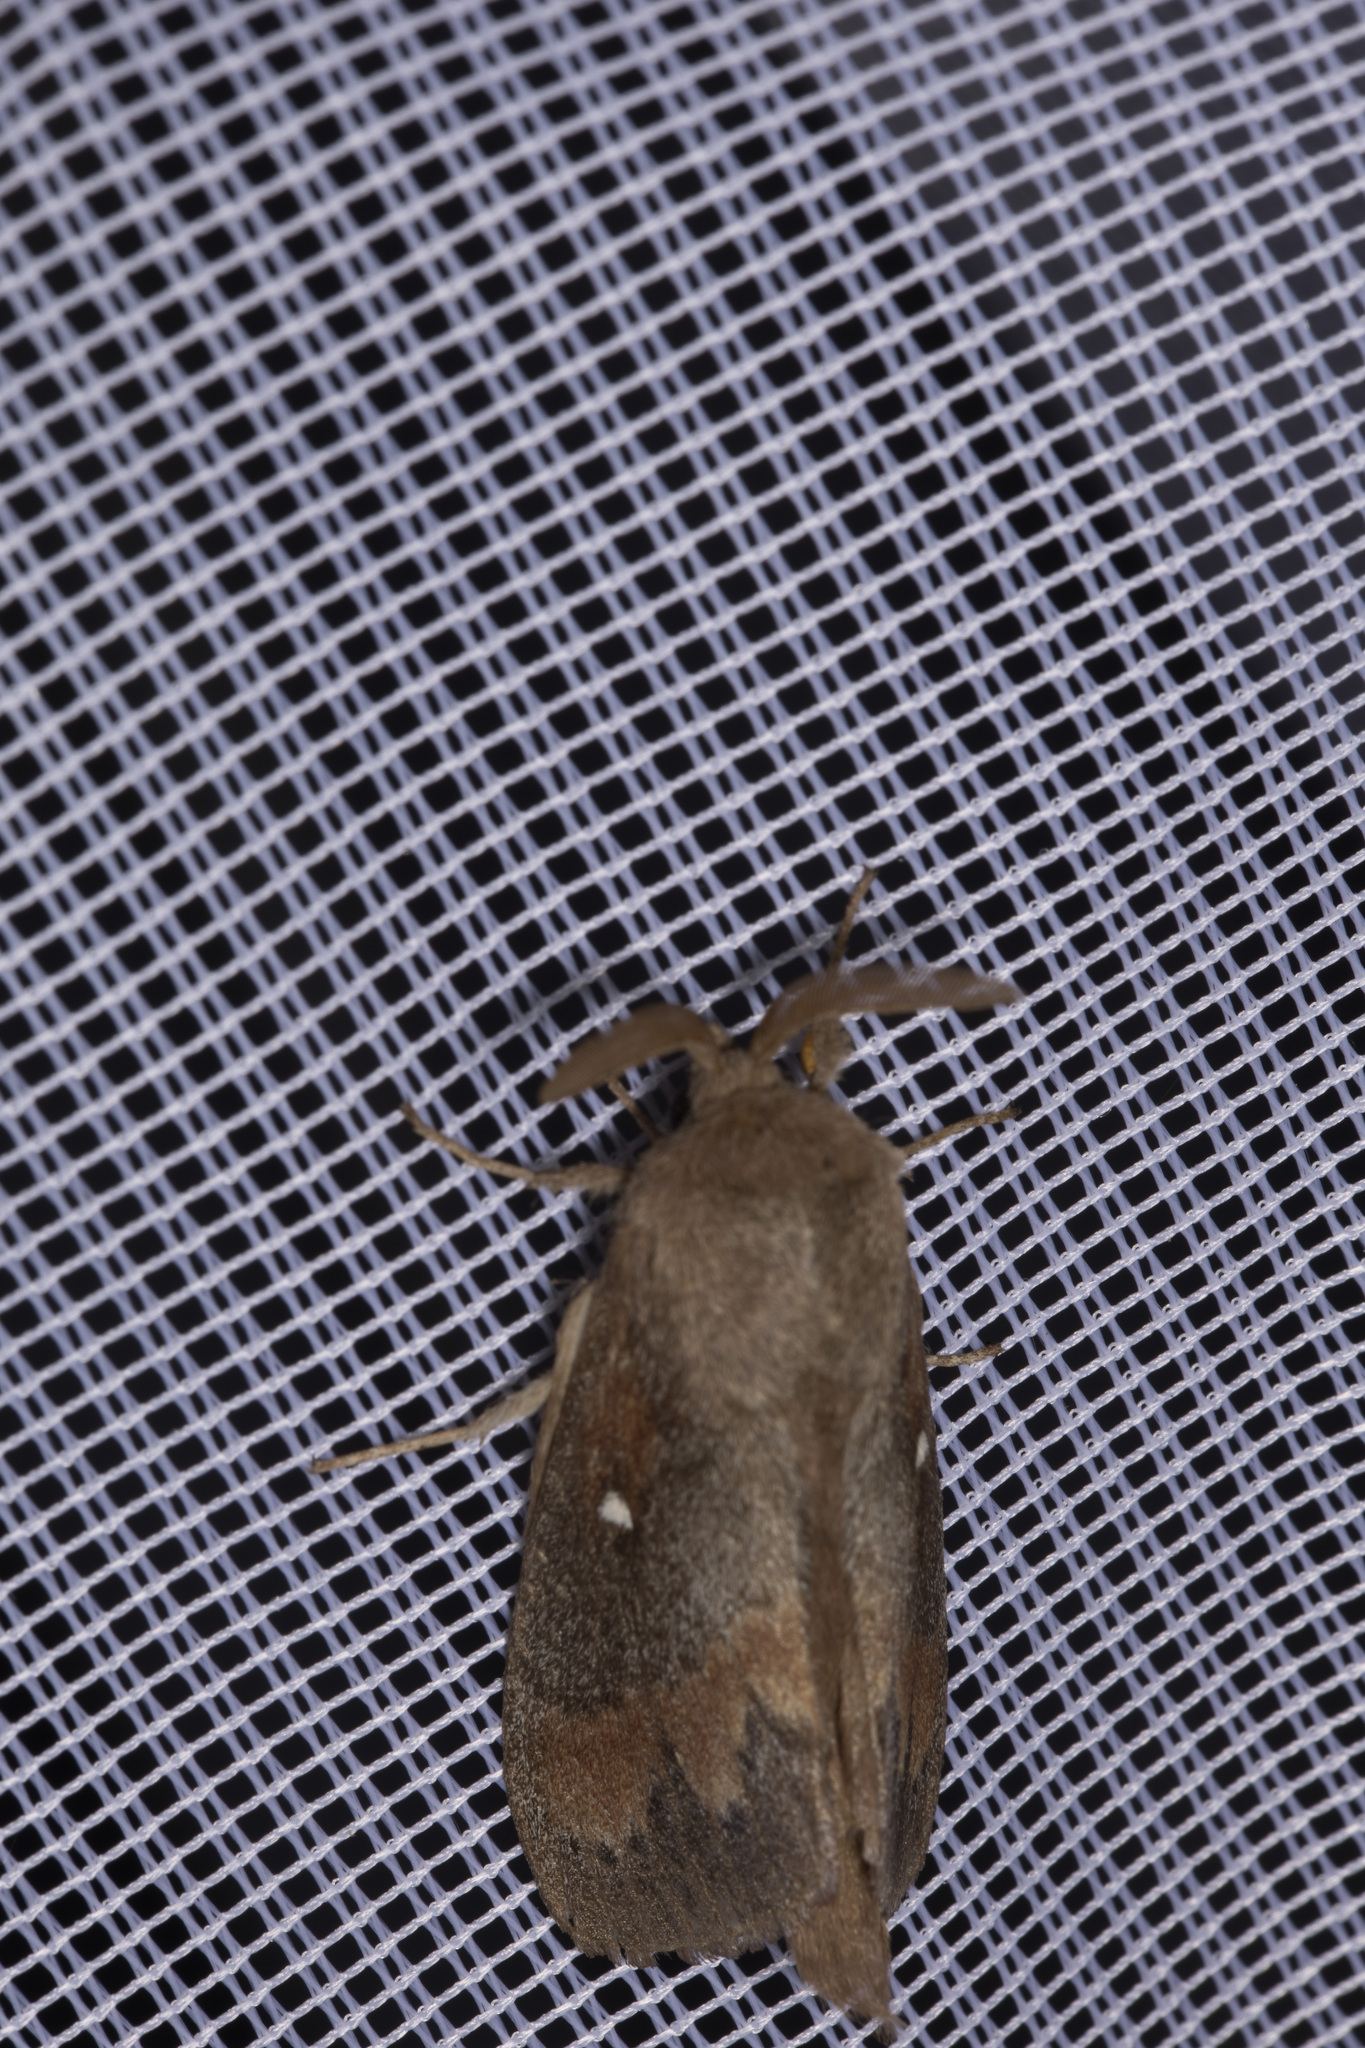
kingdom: Animalia
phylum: Arthropoda
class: Insecta
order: Lepidoptera
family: Lasiocampidae
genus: Dendrolimus
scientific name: Dendrolimus pini
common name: Pine-tree lappet
